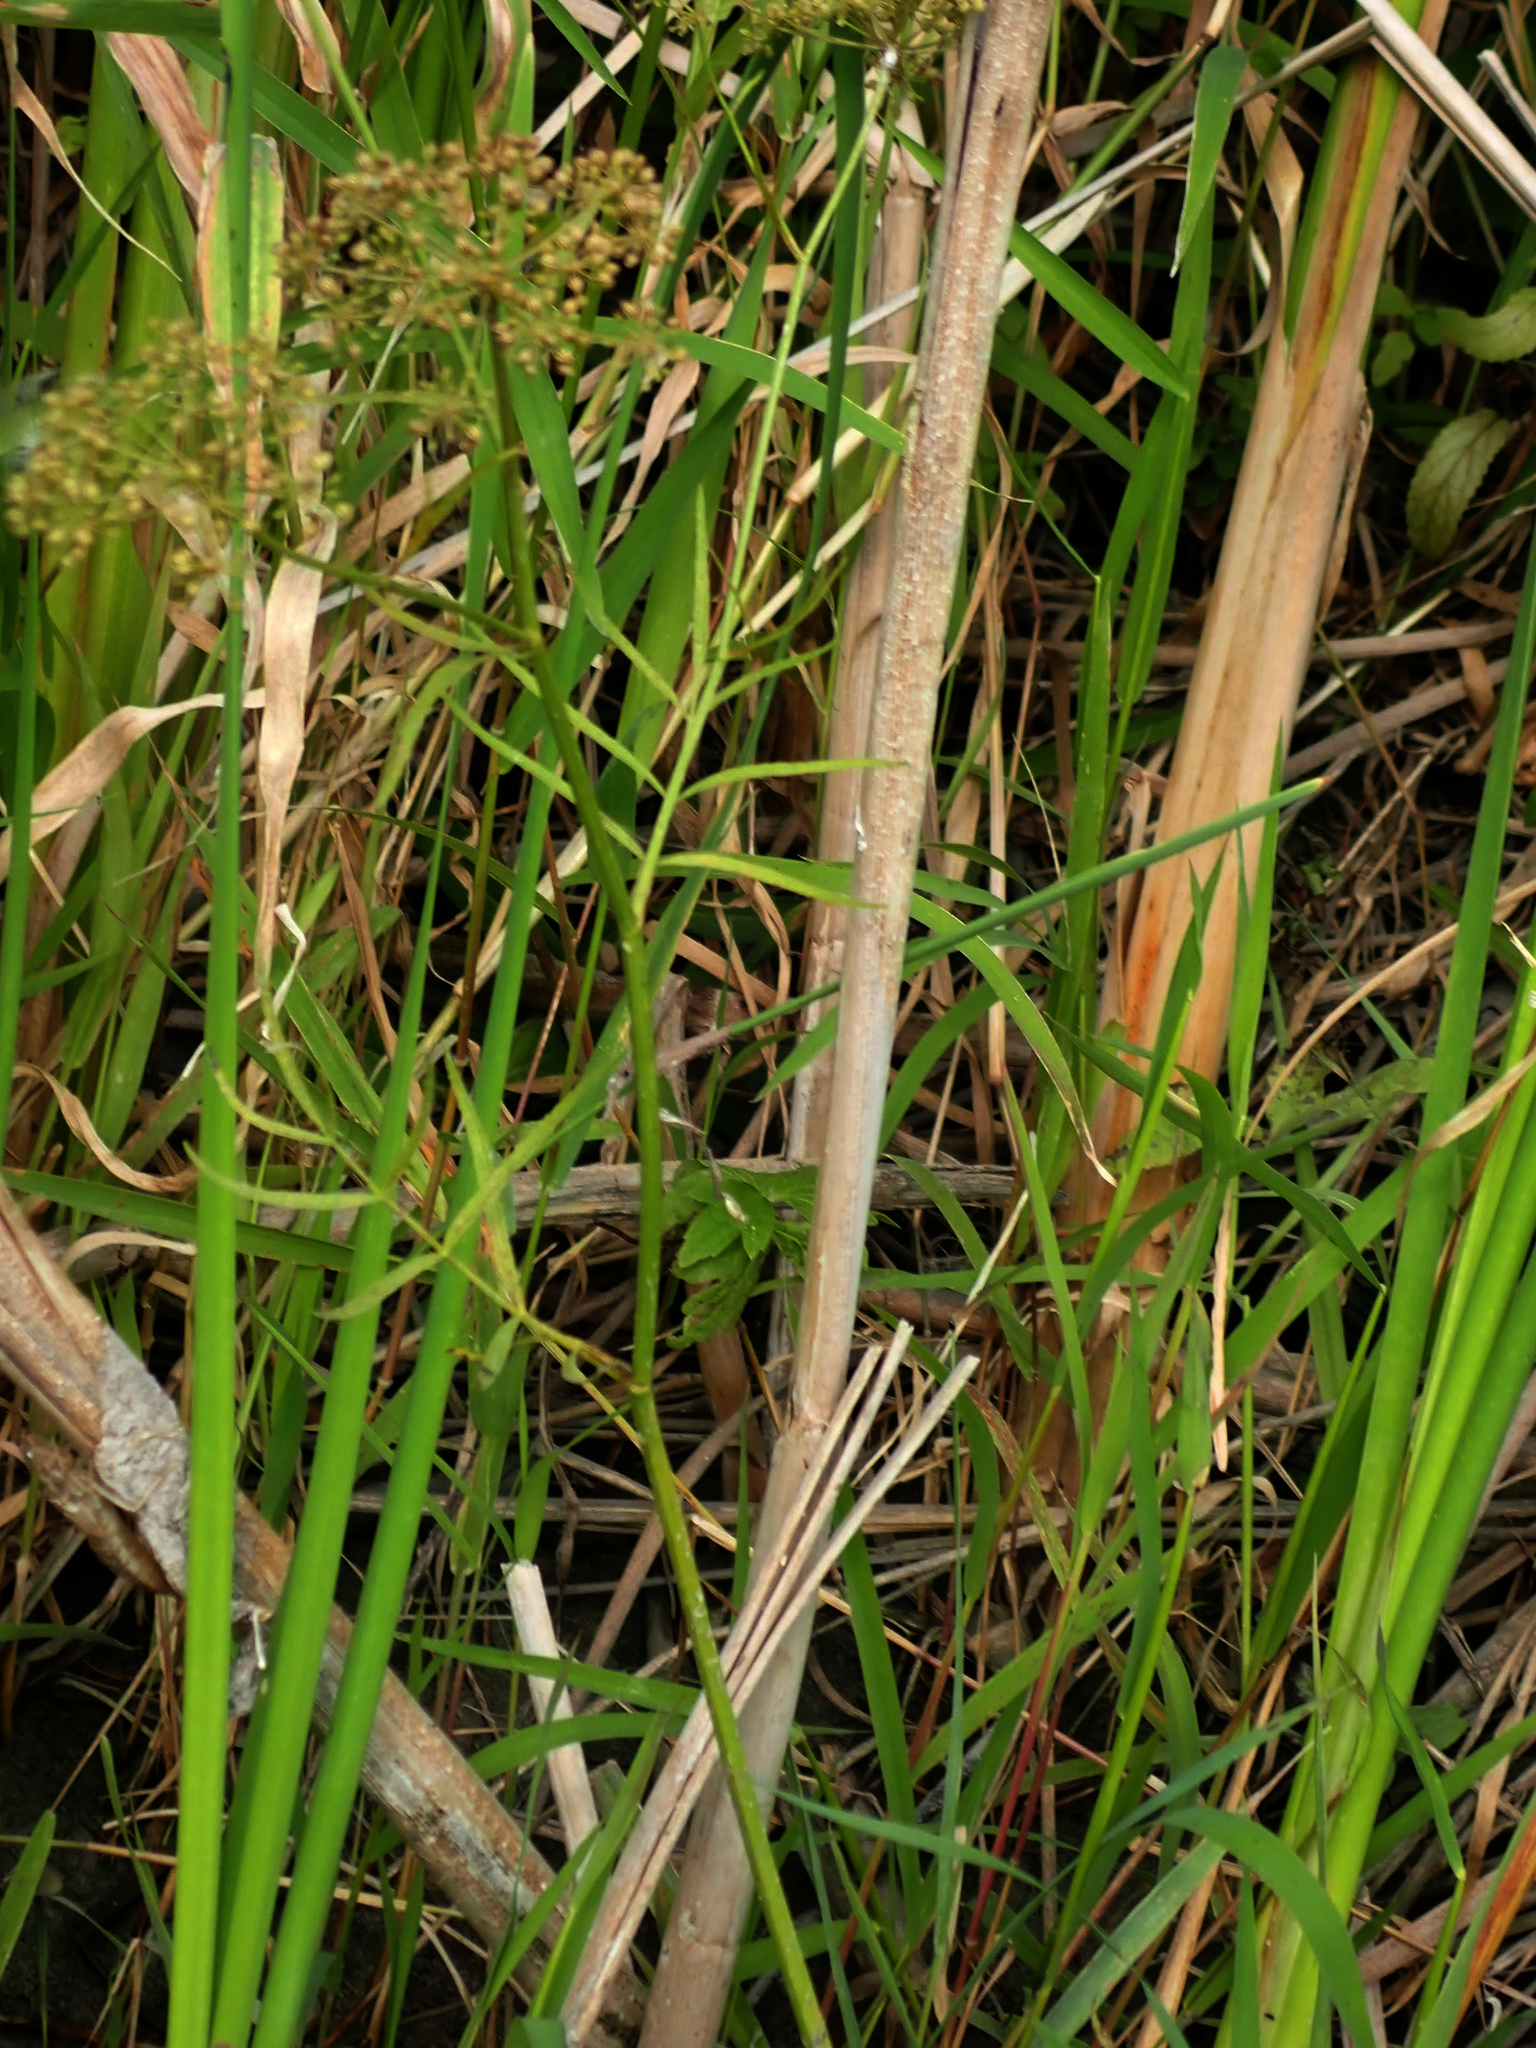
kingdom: Plantae
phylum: Tracheophyta
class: Magnoliopsida
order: Apiales
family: Apiaceae
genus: Sium
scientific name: Sium suave
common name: Hemlock water-parsnip
